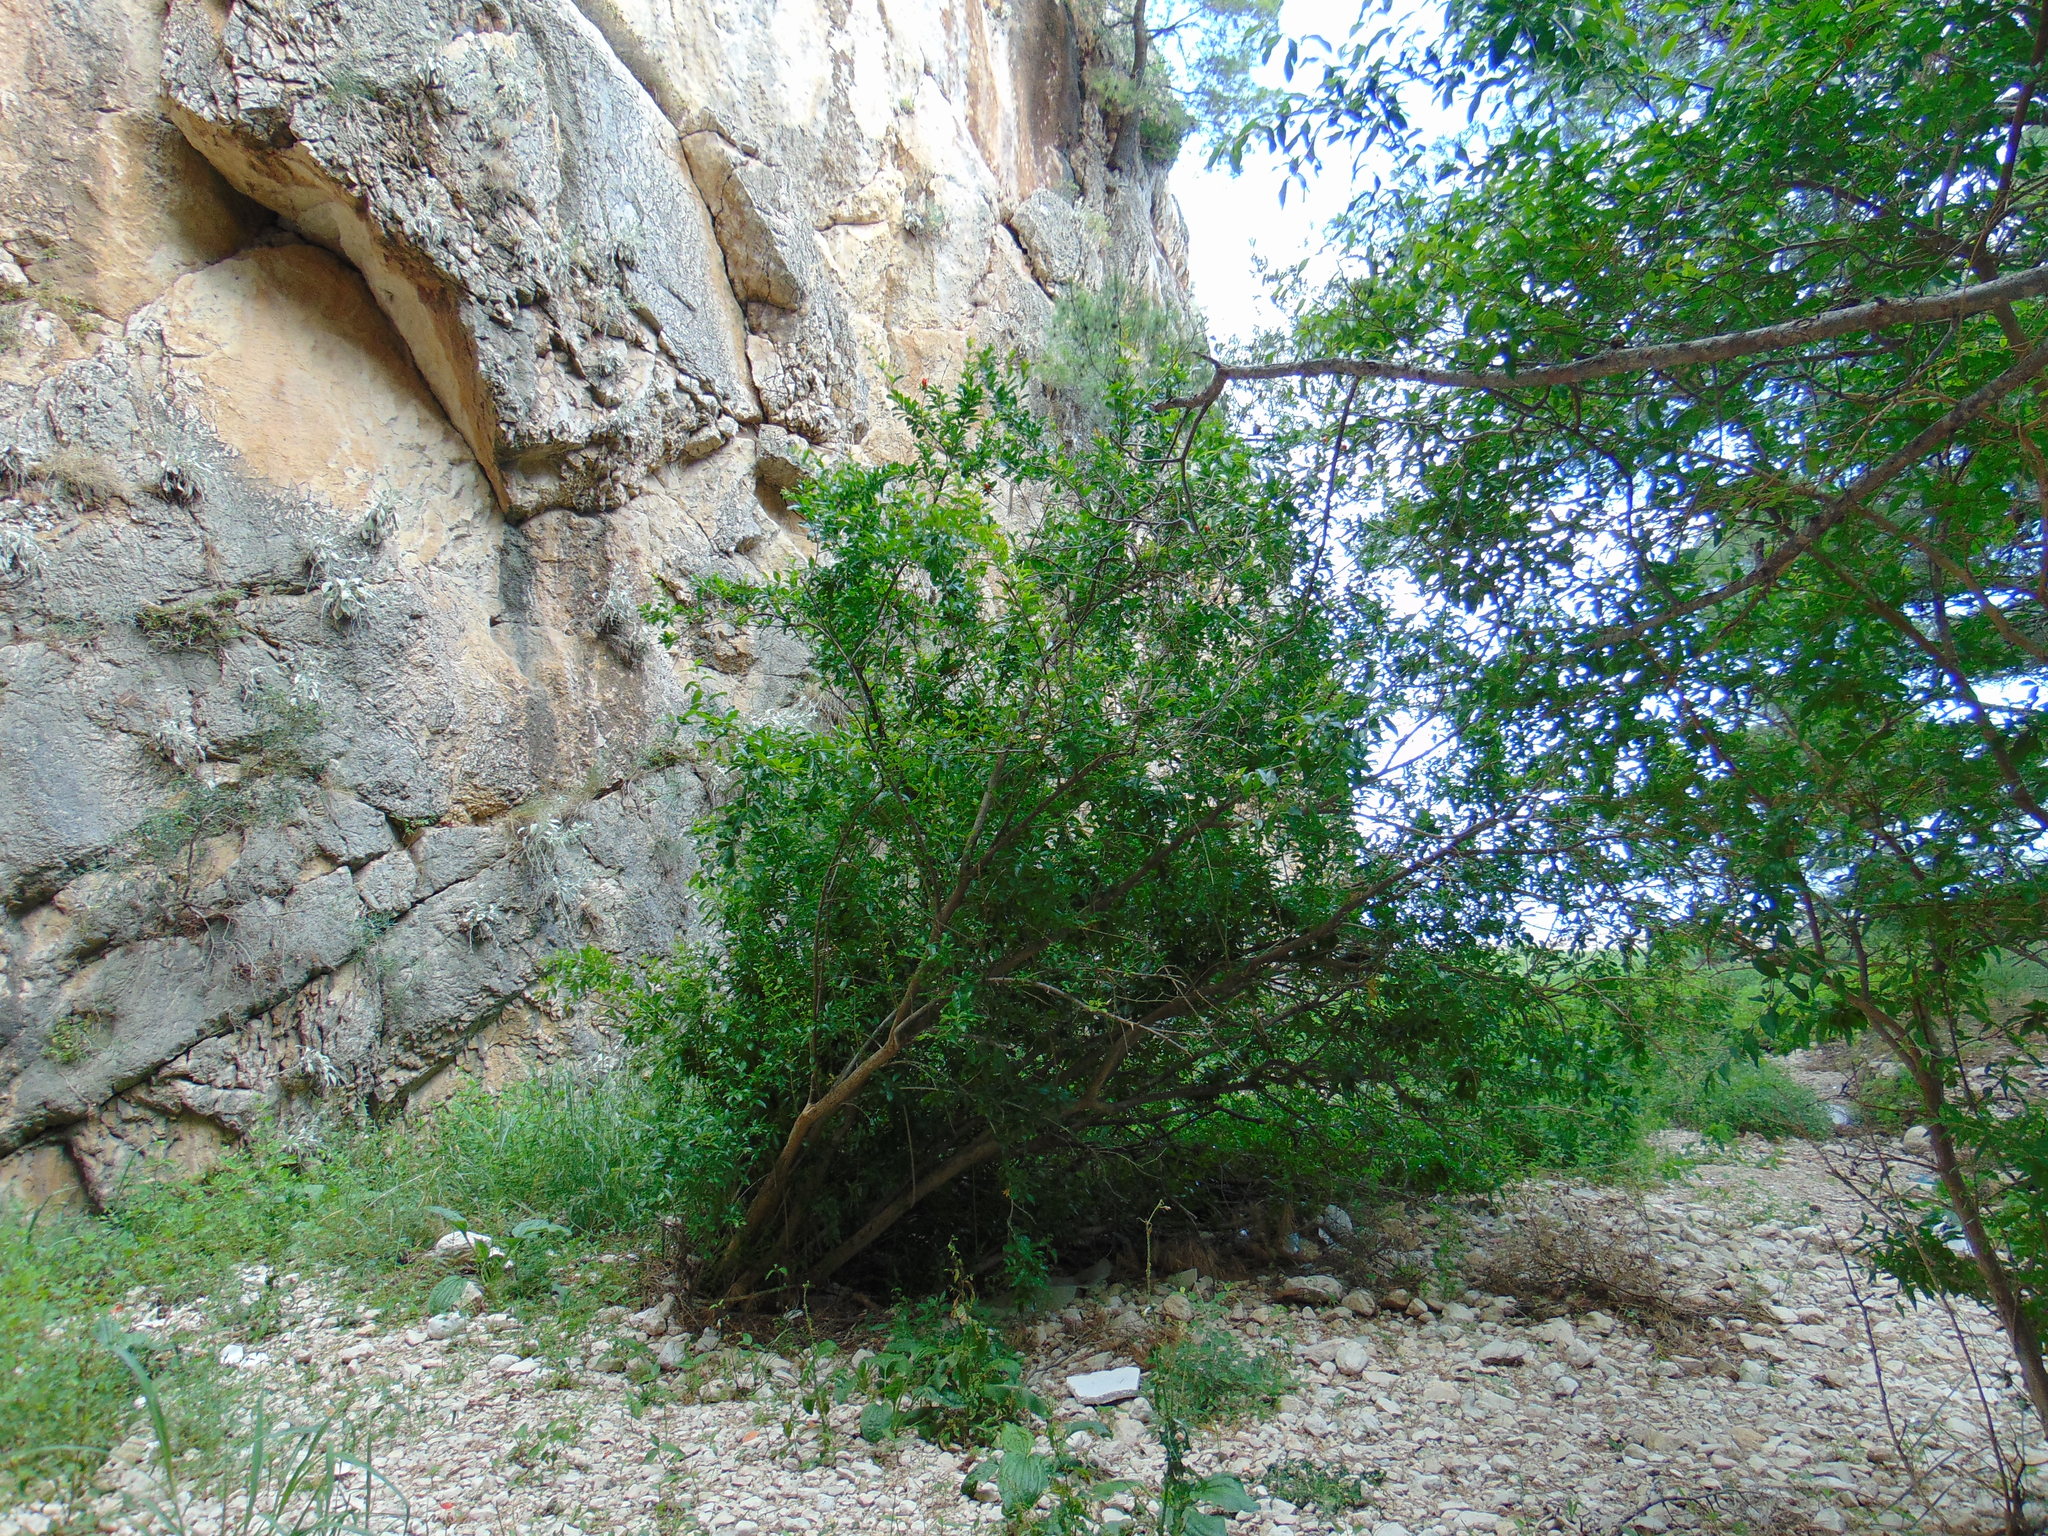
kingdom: Plantae
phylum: Tracheophyta
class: Magnoliopsida
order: Myrtales
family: Lythraceae
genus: Punica
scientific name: Punica granatum
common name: Pomegranate
